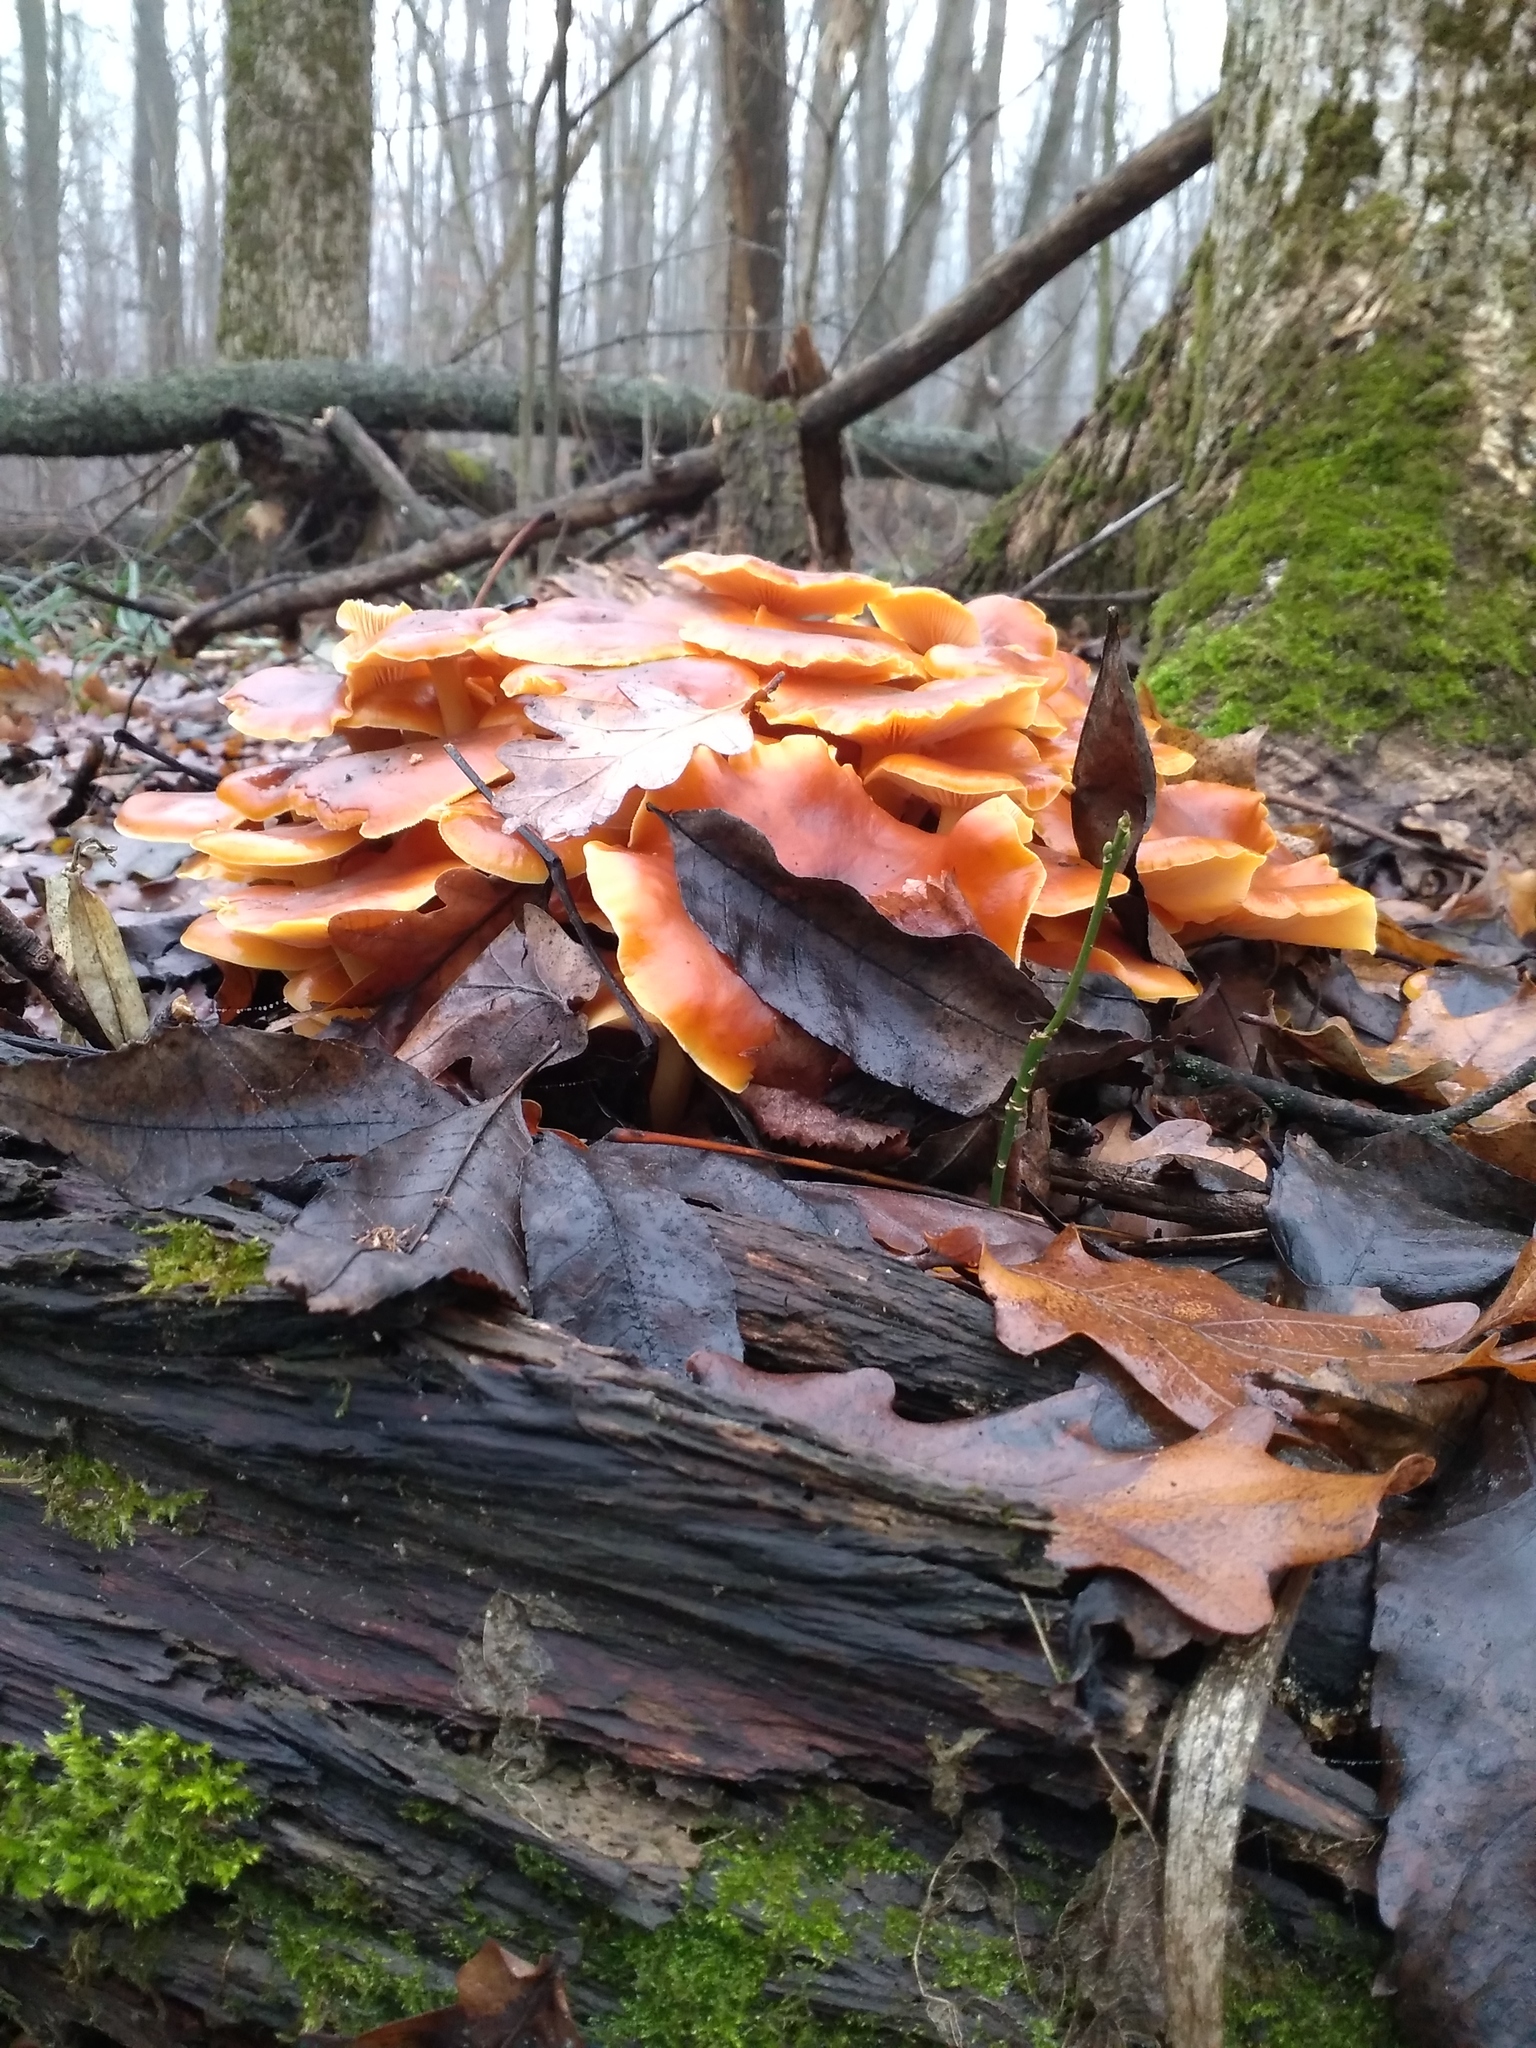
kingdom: Fungi
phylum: Basidiomycota
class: Agaricomycetes
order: Agaricales
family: Physalacriaceae
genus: Flammulina
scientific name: Flammulina
